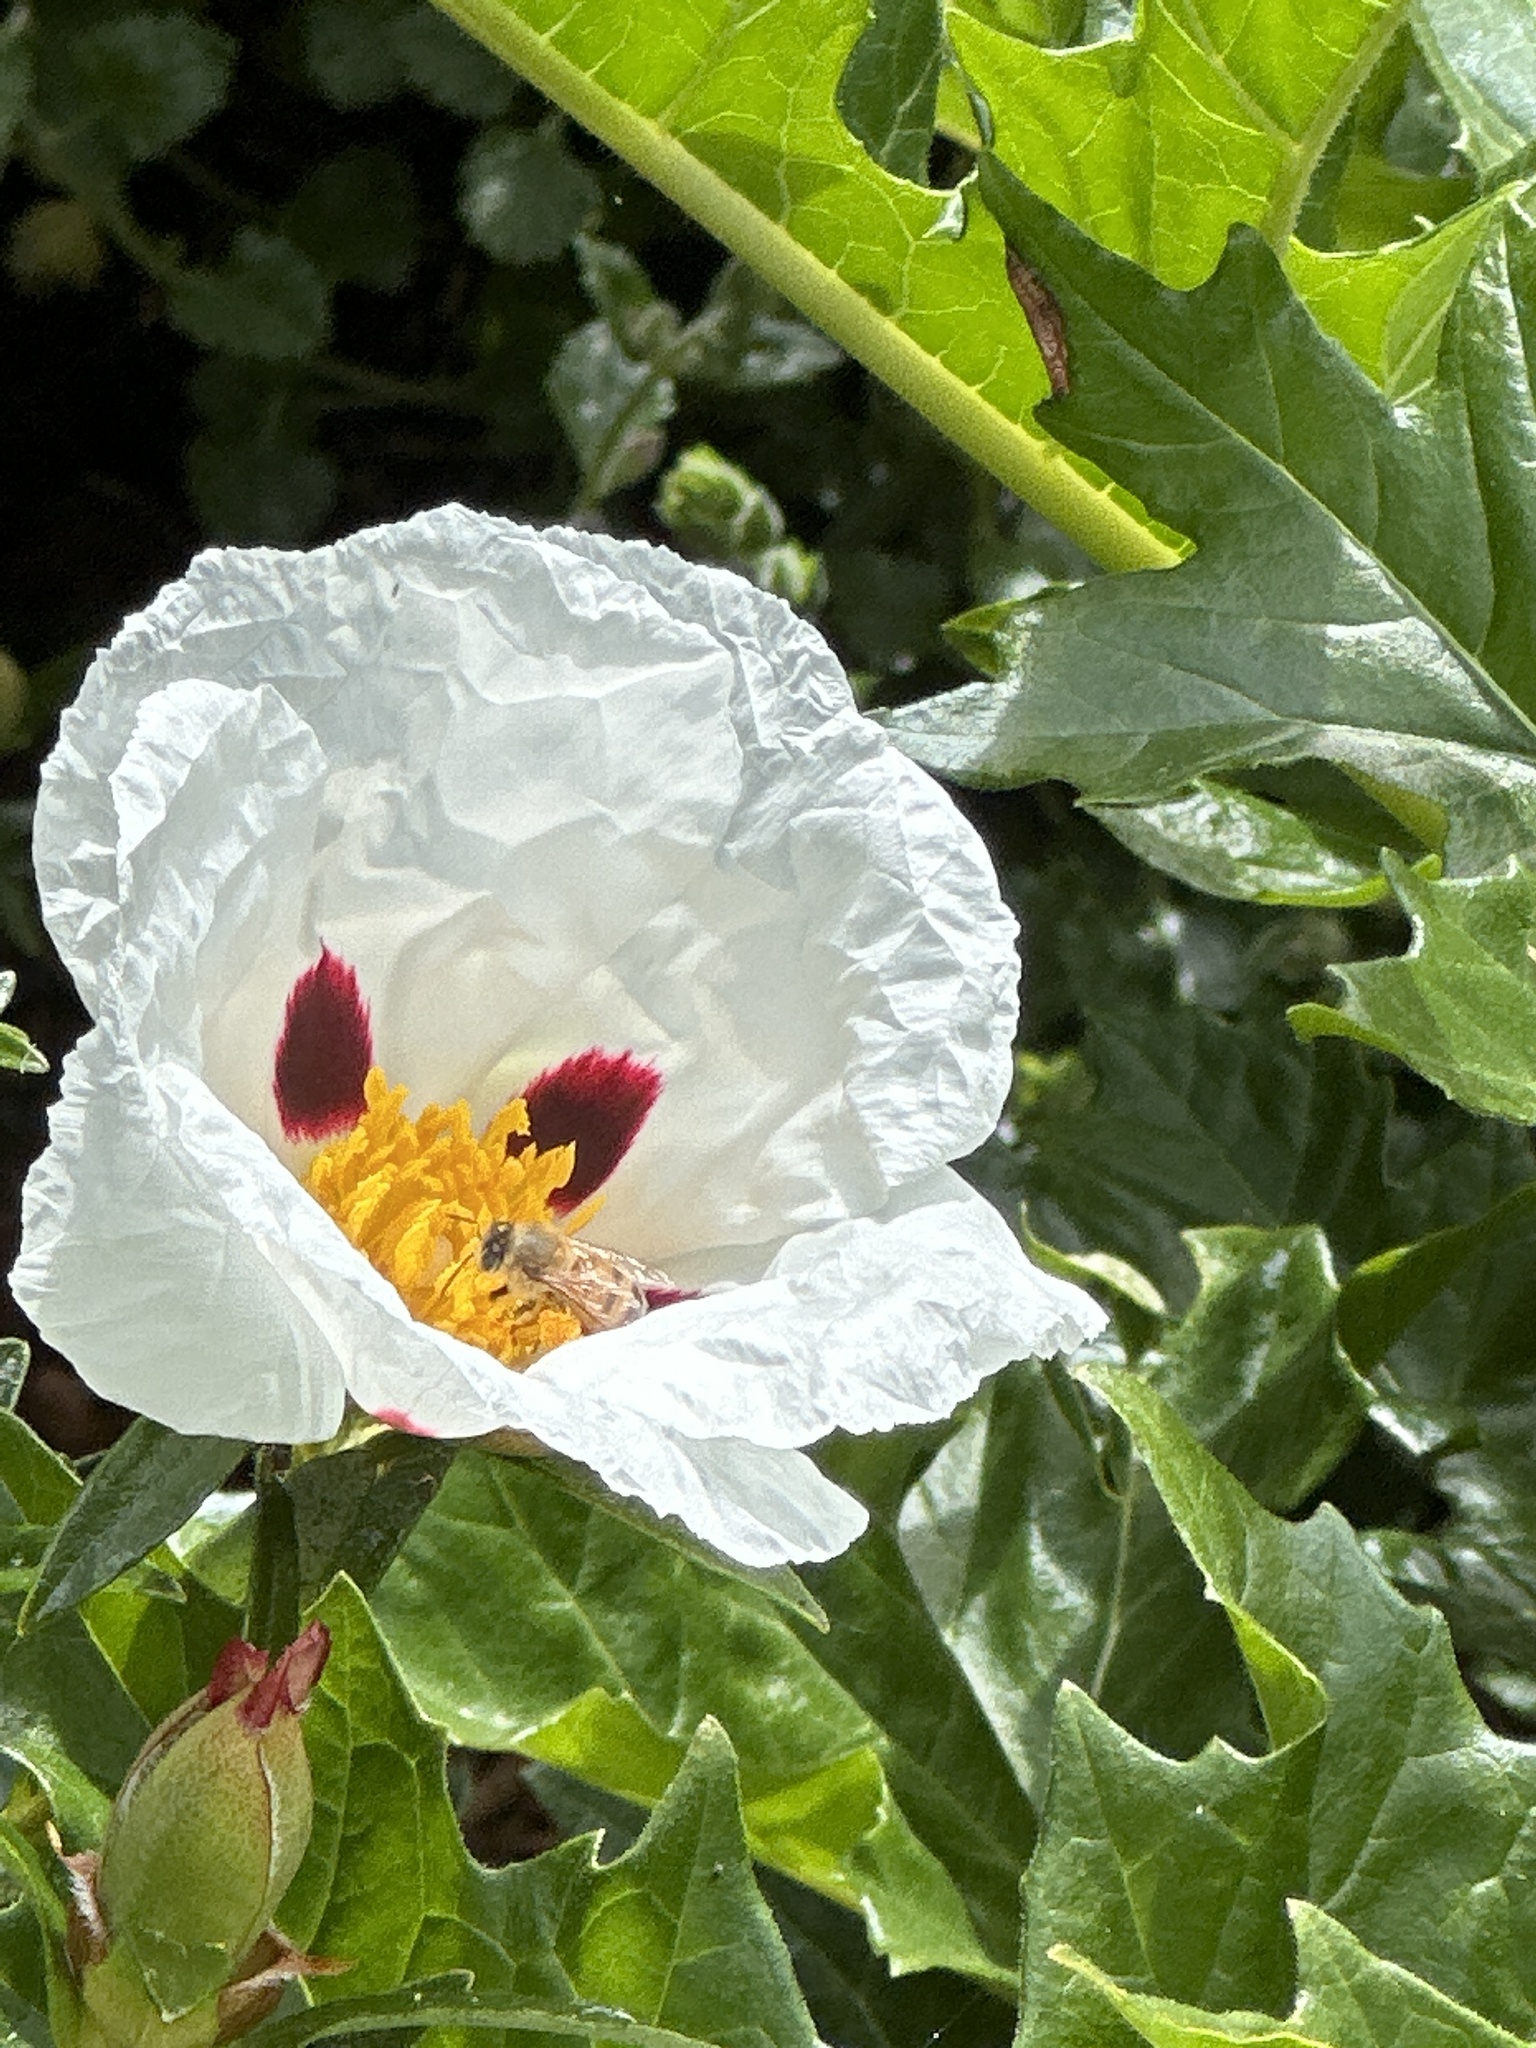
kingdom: Animalia
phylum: Arthropoda
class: Insecta
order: Hymenoptera
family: Apidae
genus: Apis
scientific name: Apis mellifera
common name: Honey bee
